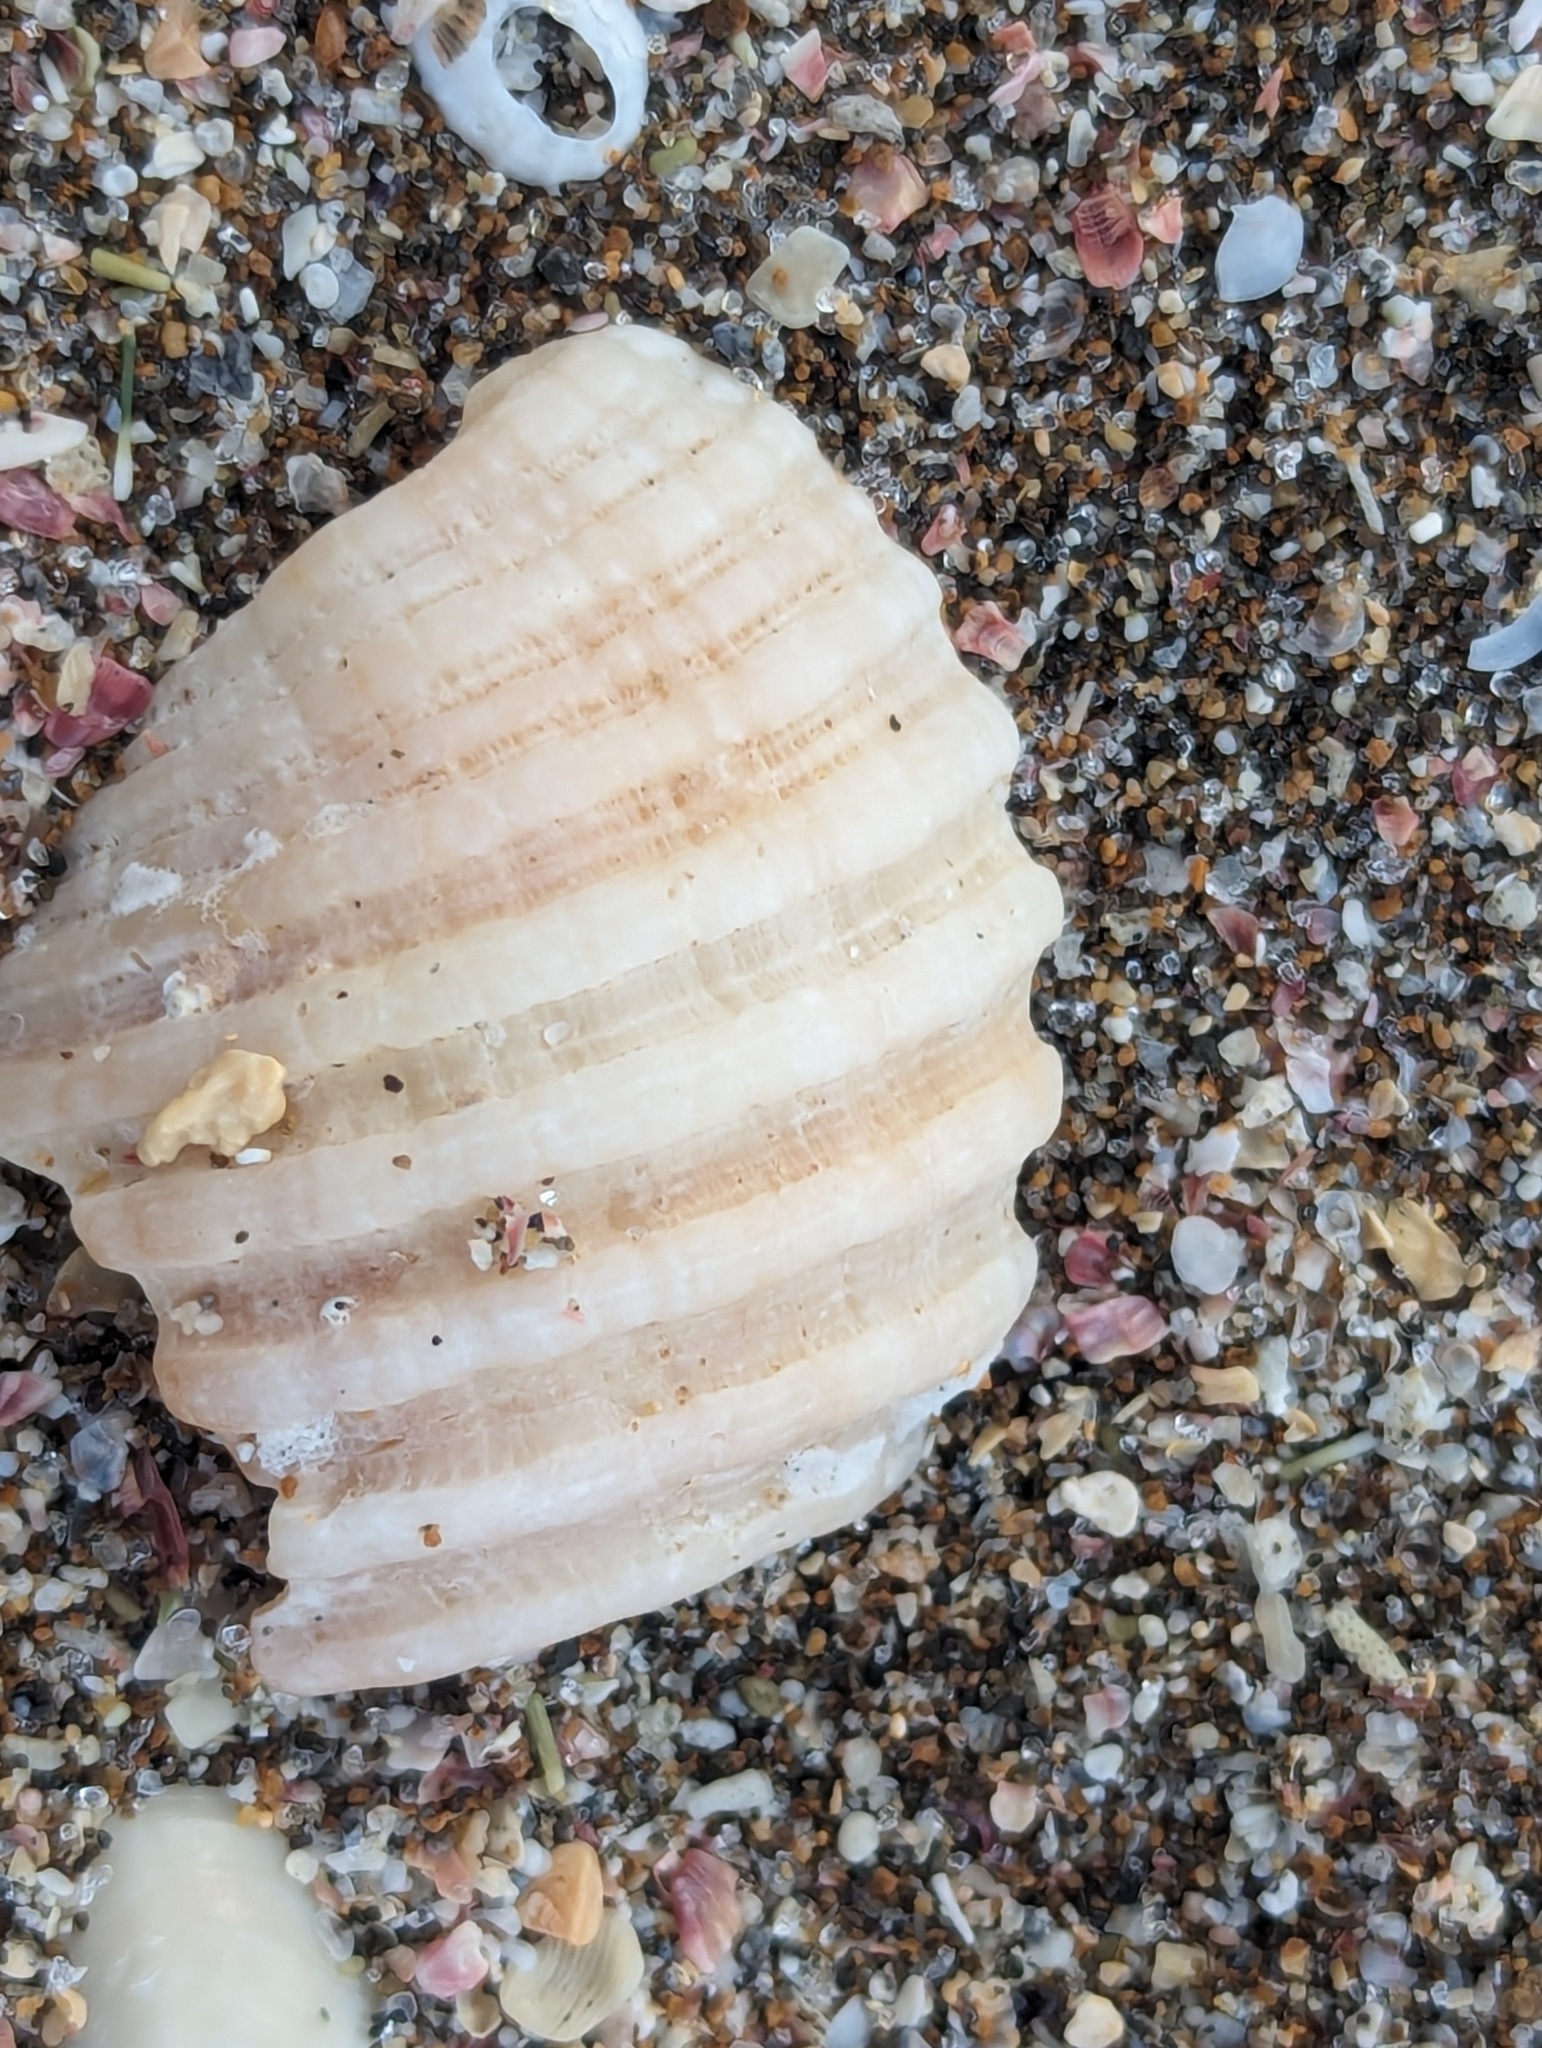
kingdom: Animalia
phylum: Mollusca
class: Gastropoda
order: Neogastropoda
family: Muricidae
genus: Dicathais
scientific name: Dicathais orbita
